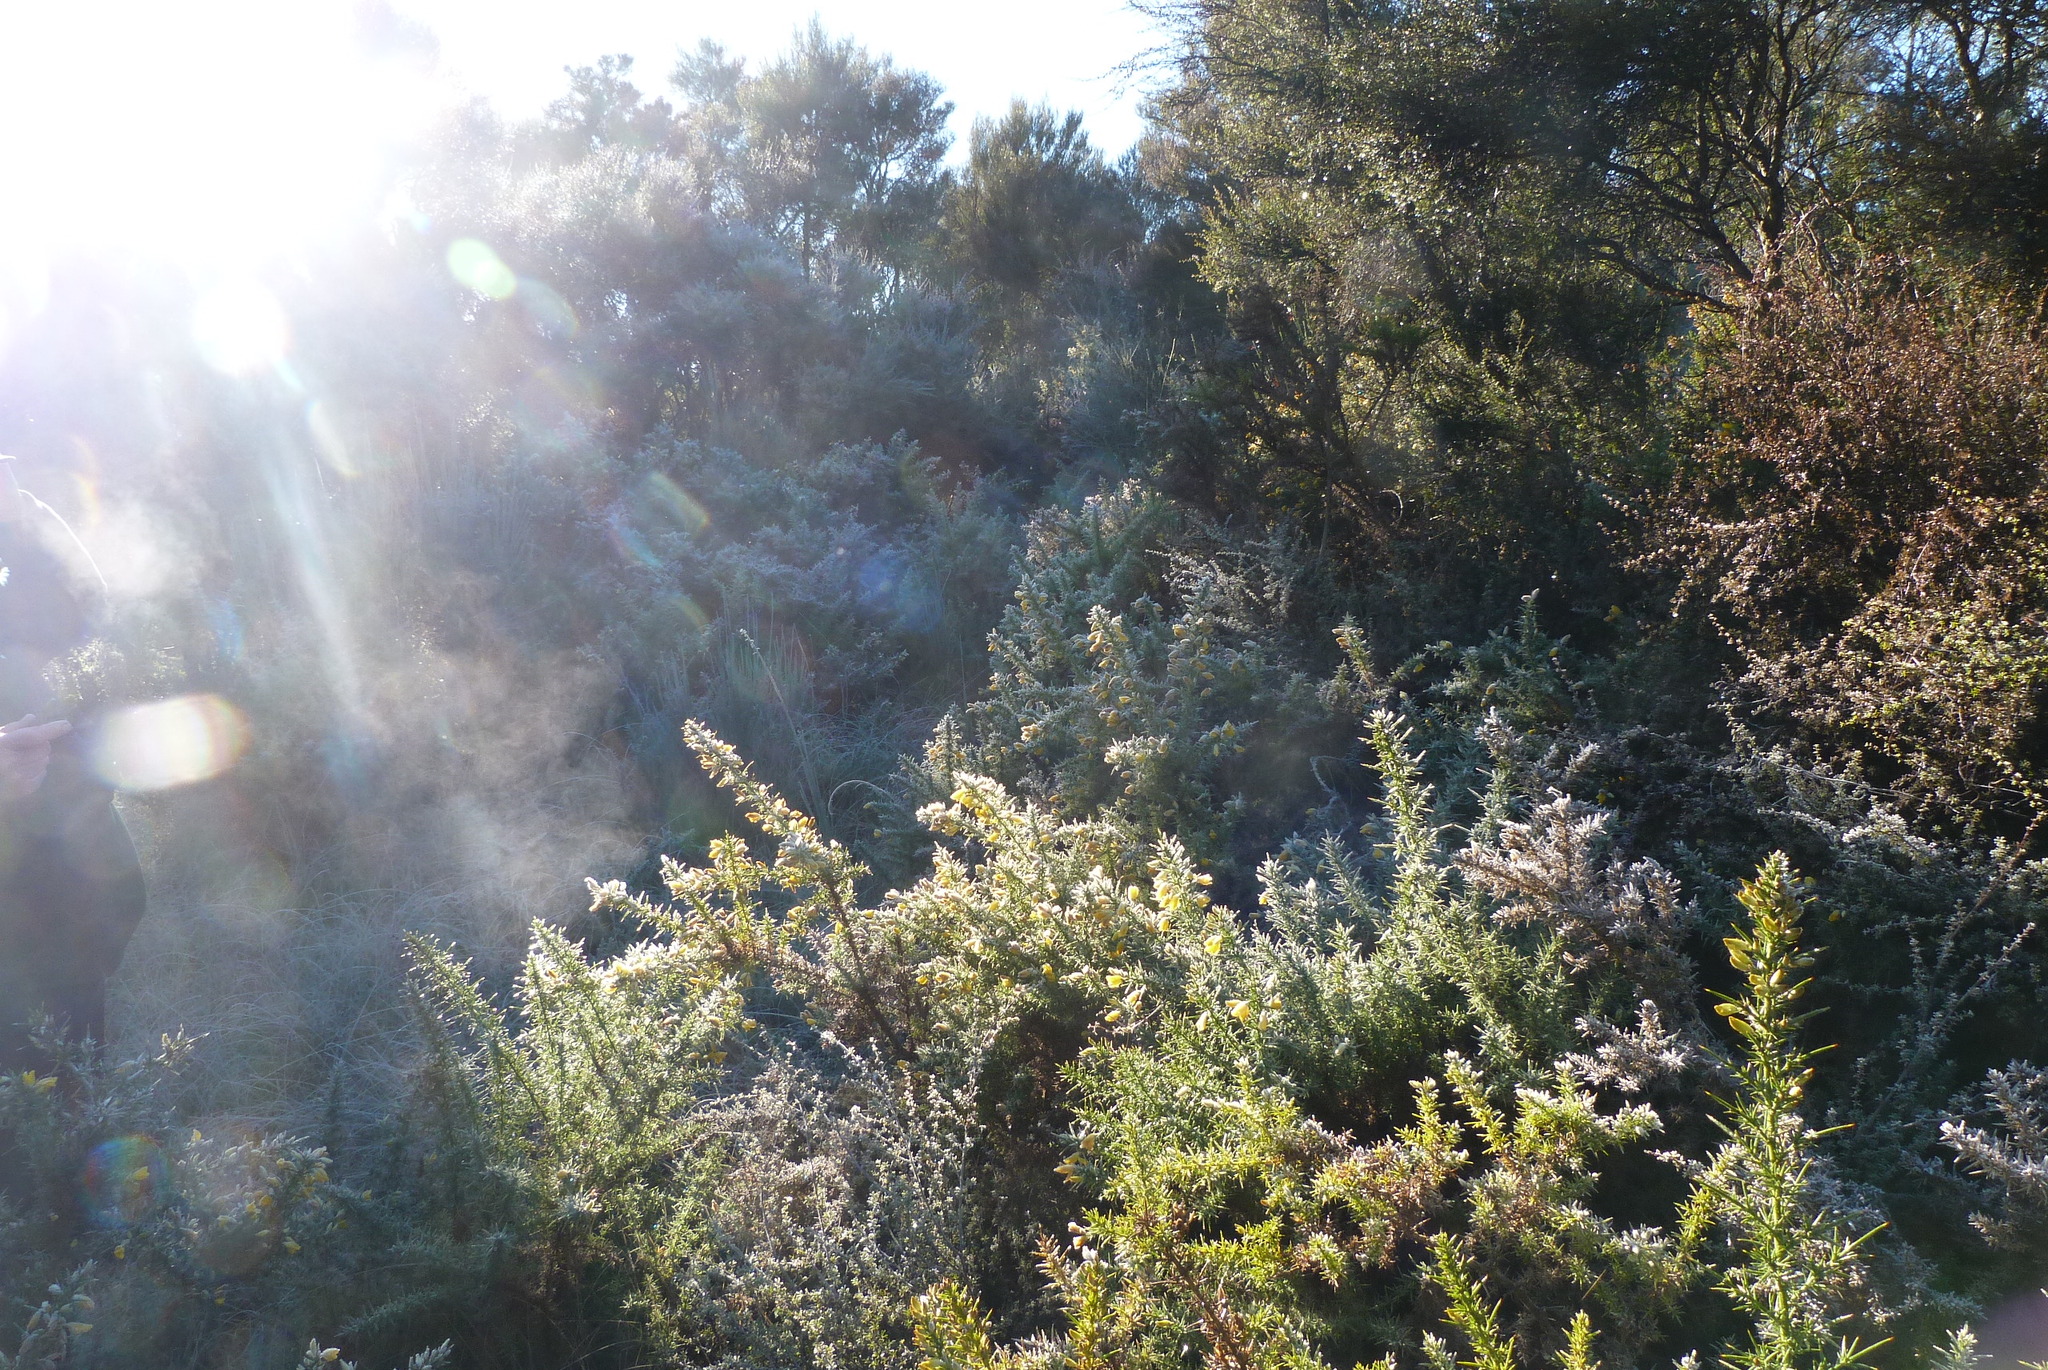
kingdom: Plantae
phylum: Tracheophyta
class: Magnoliopsida
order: Fabales
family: Fabaceae
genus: Ulex
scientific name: Ulex europaeus
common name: Common gorse
